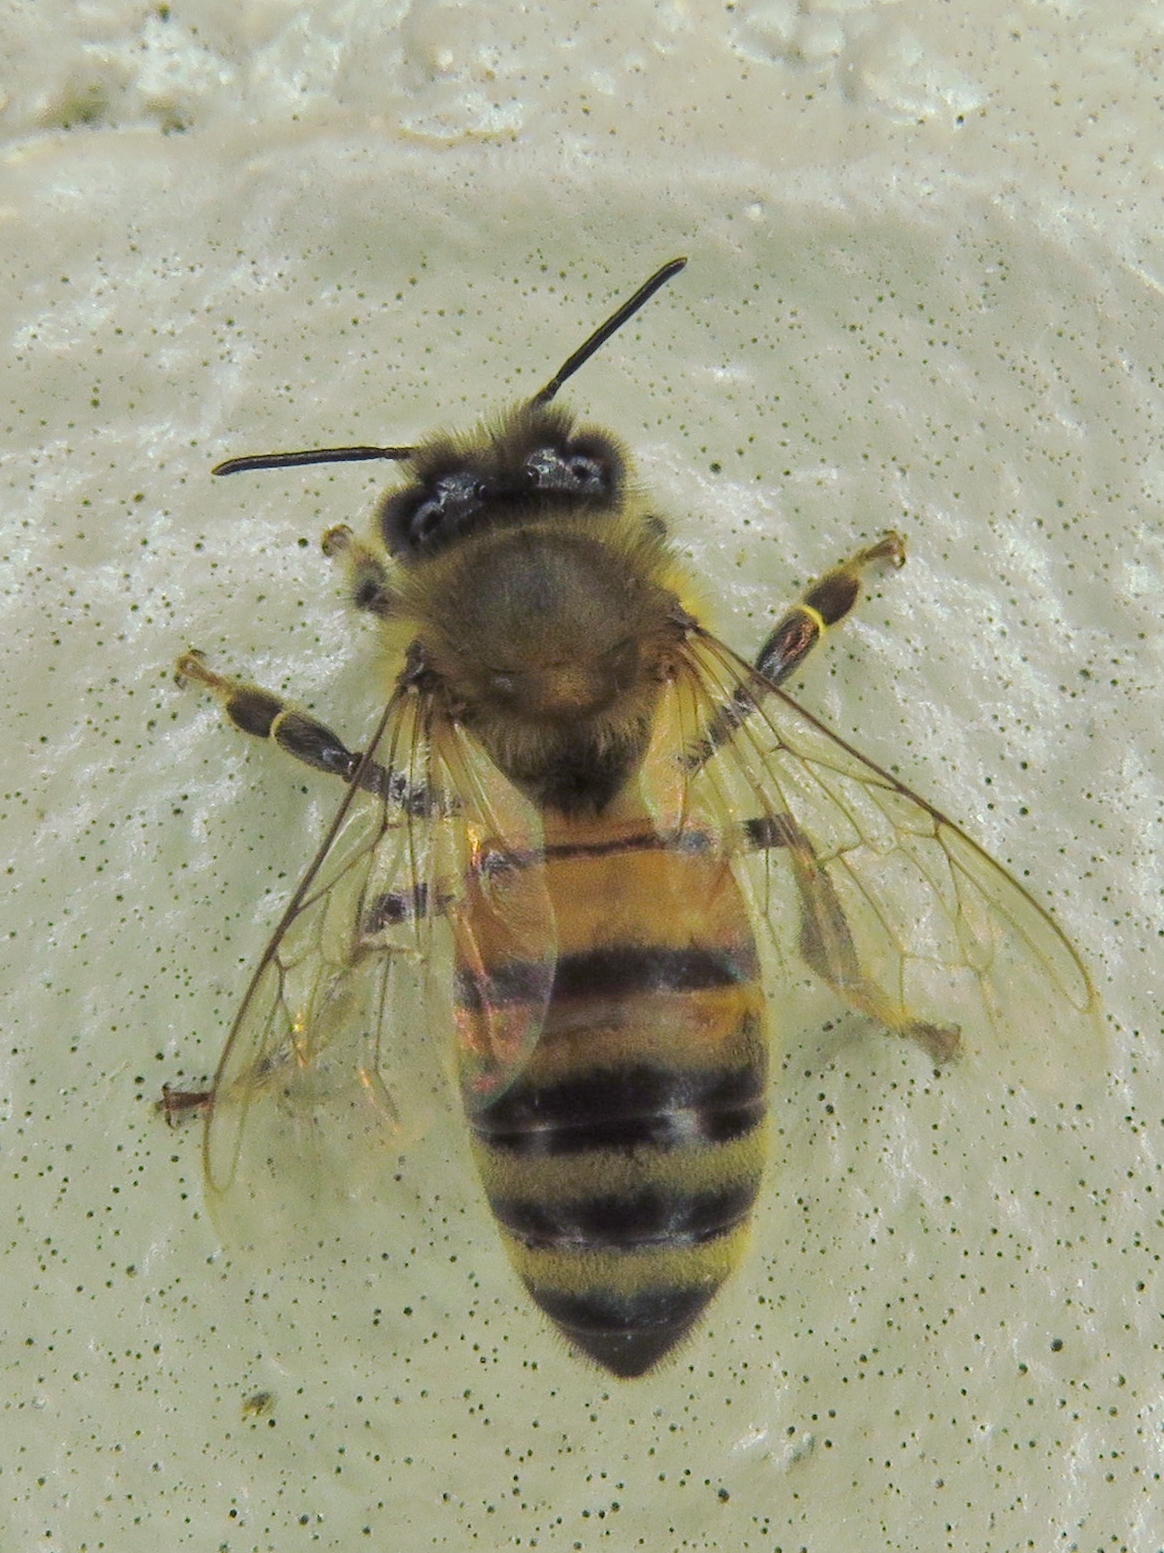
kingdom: Animalia
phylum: Arthropoda
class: Insecta
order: Hymenoptera
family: Apidae
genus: Apis
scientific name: Apis mellifera
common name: Honey bee
